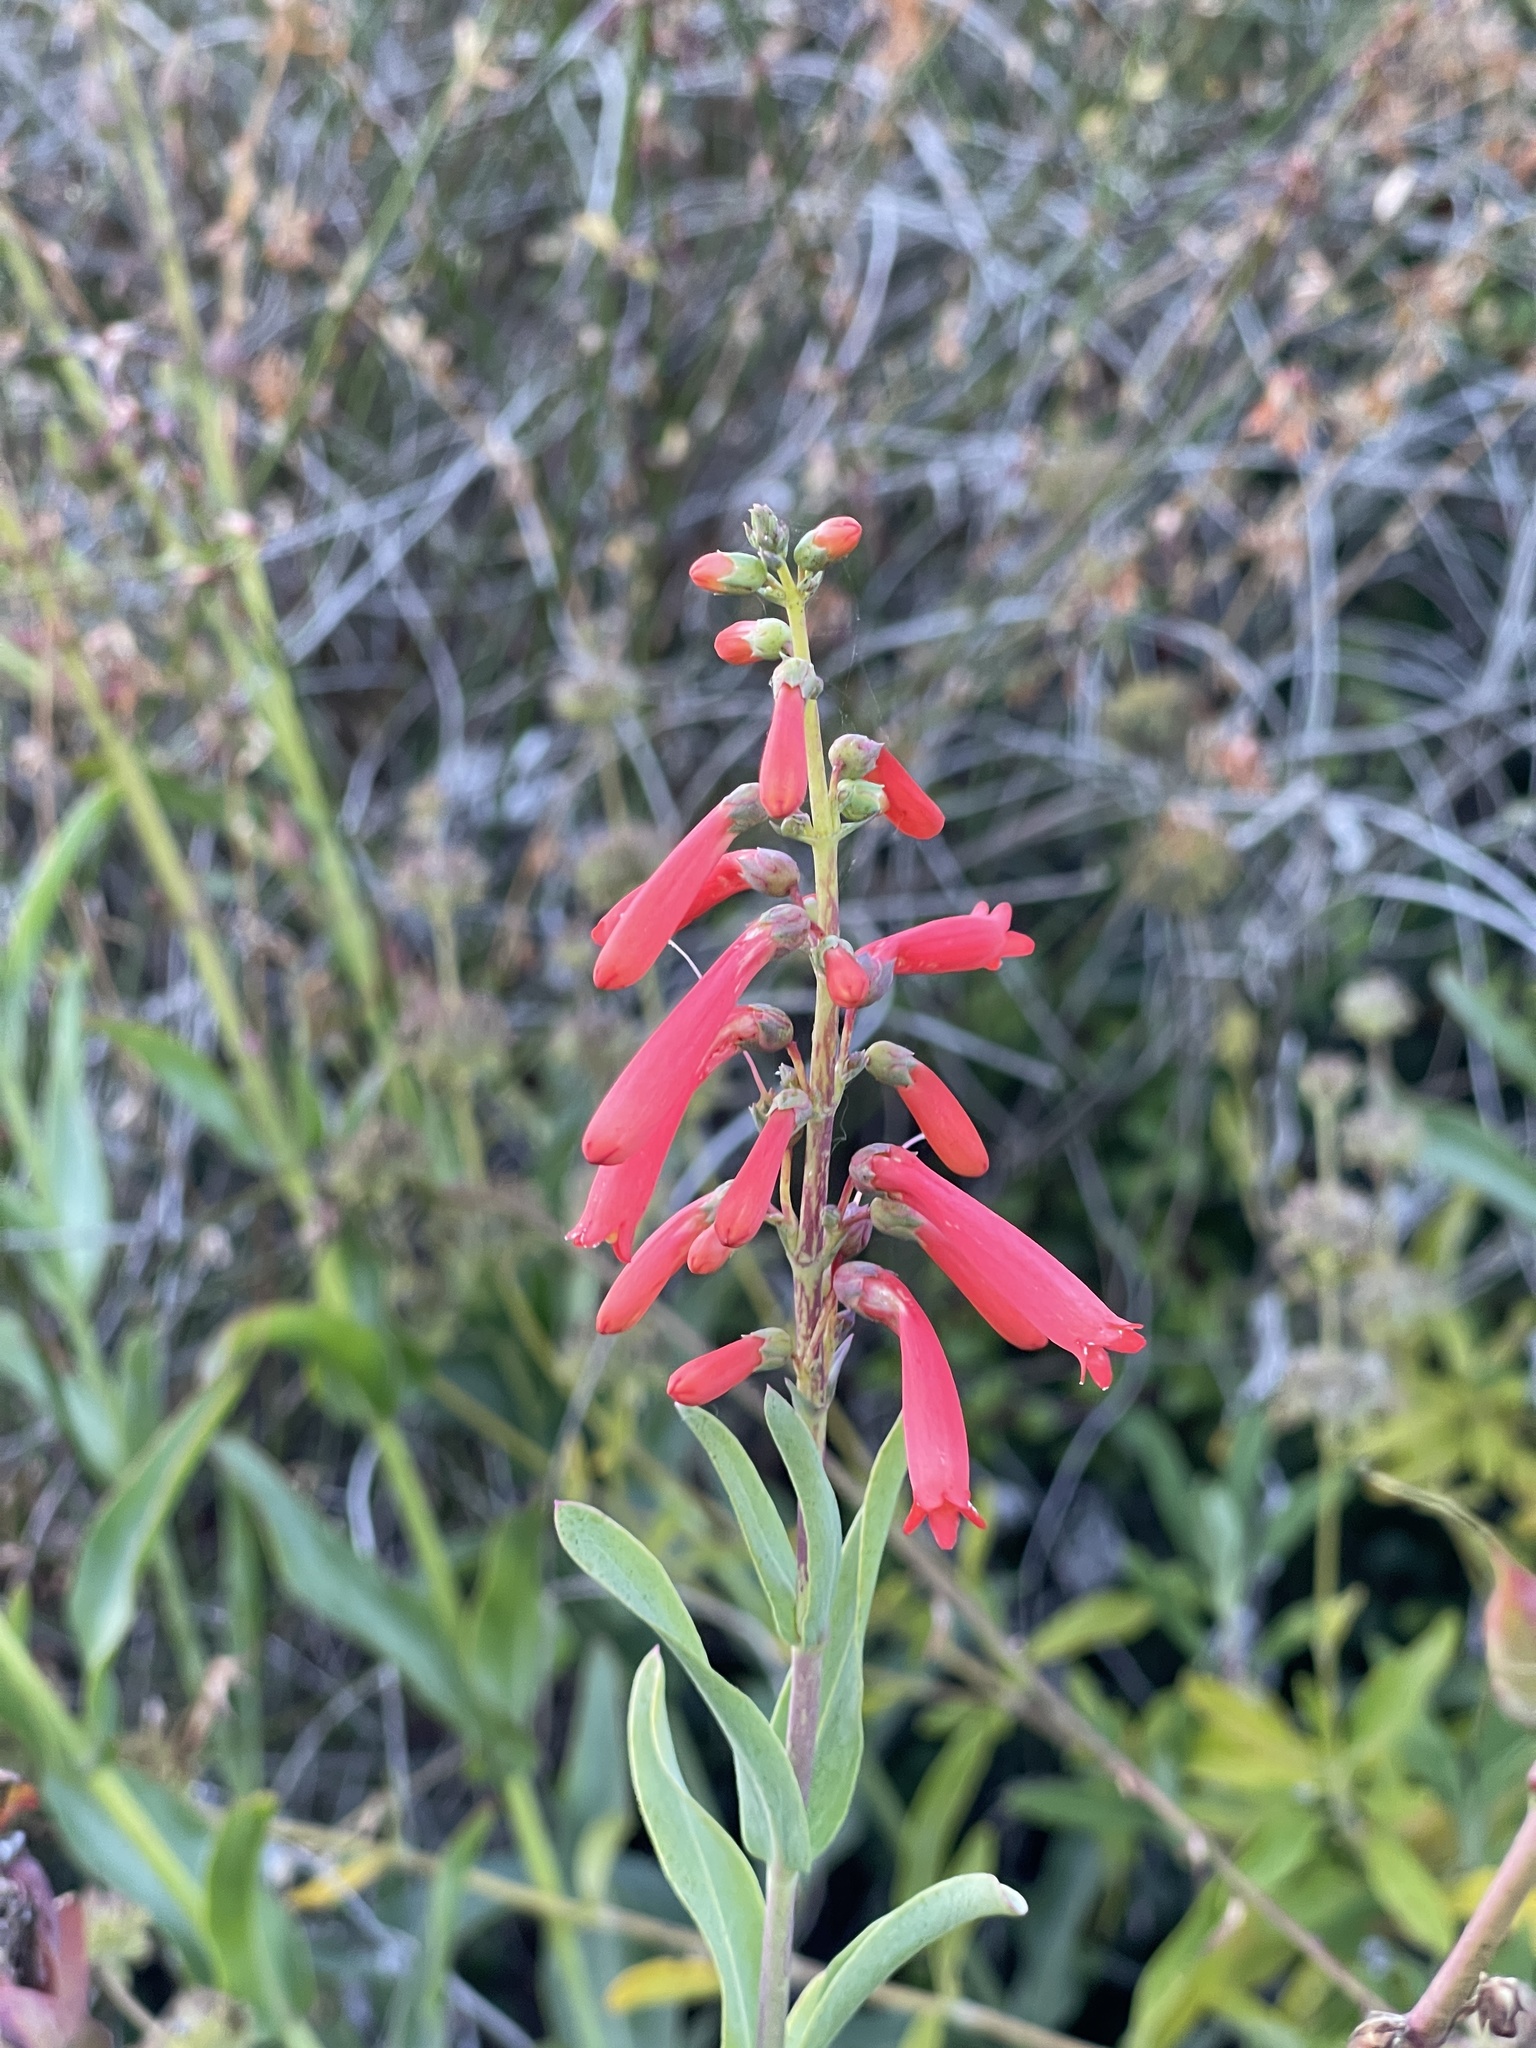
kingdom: Plantae
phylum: Tracheophyta
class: Magnoliopsida
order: Lamiales
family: Plantaginaceae
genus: Penstemon
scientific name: Penstemon centranthifolius
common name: Scarlet bugler
